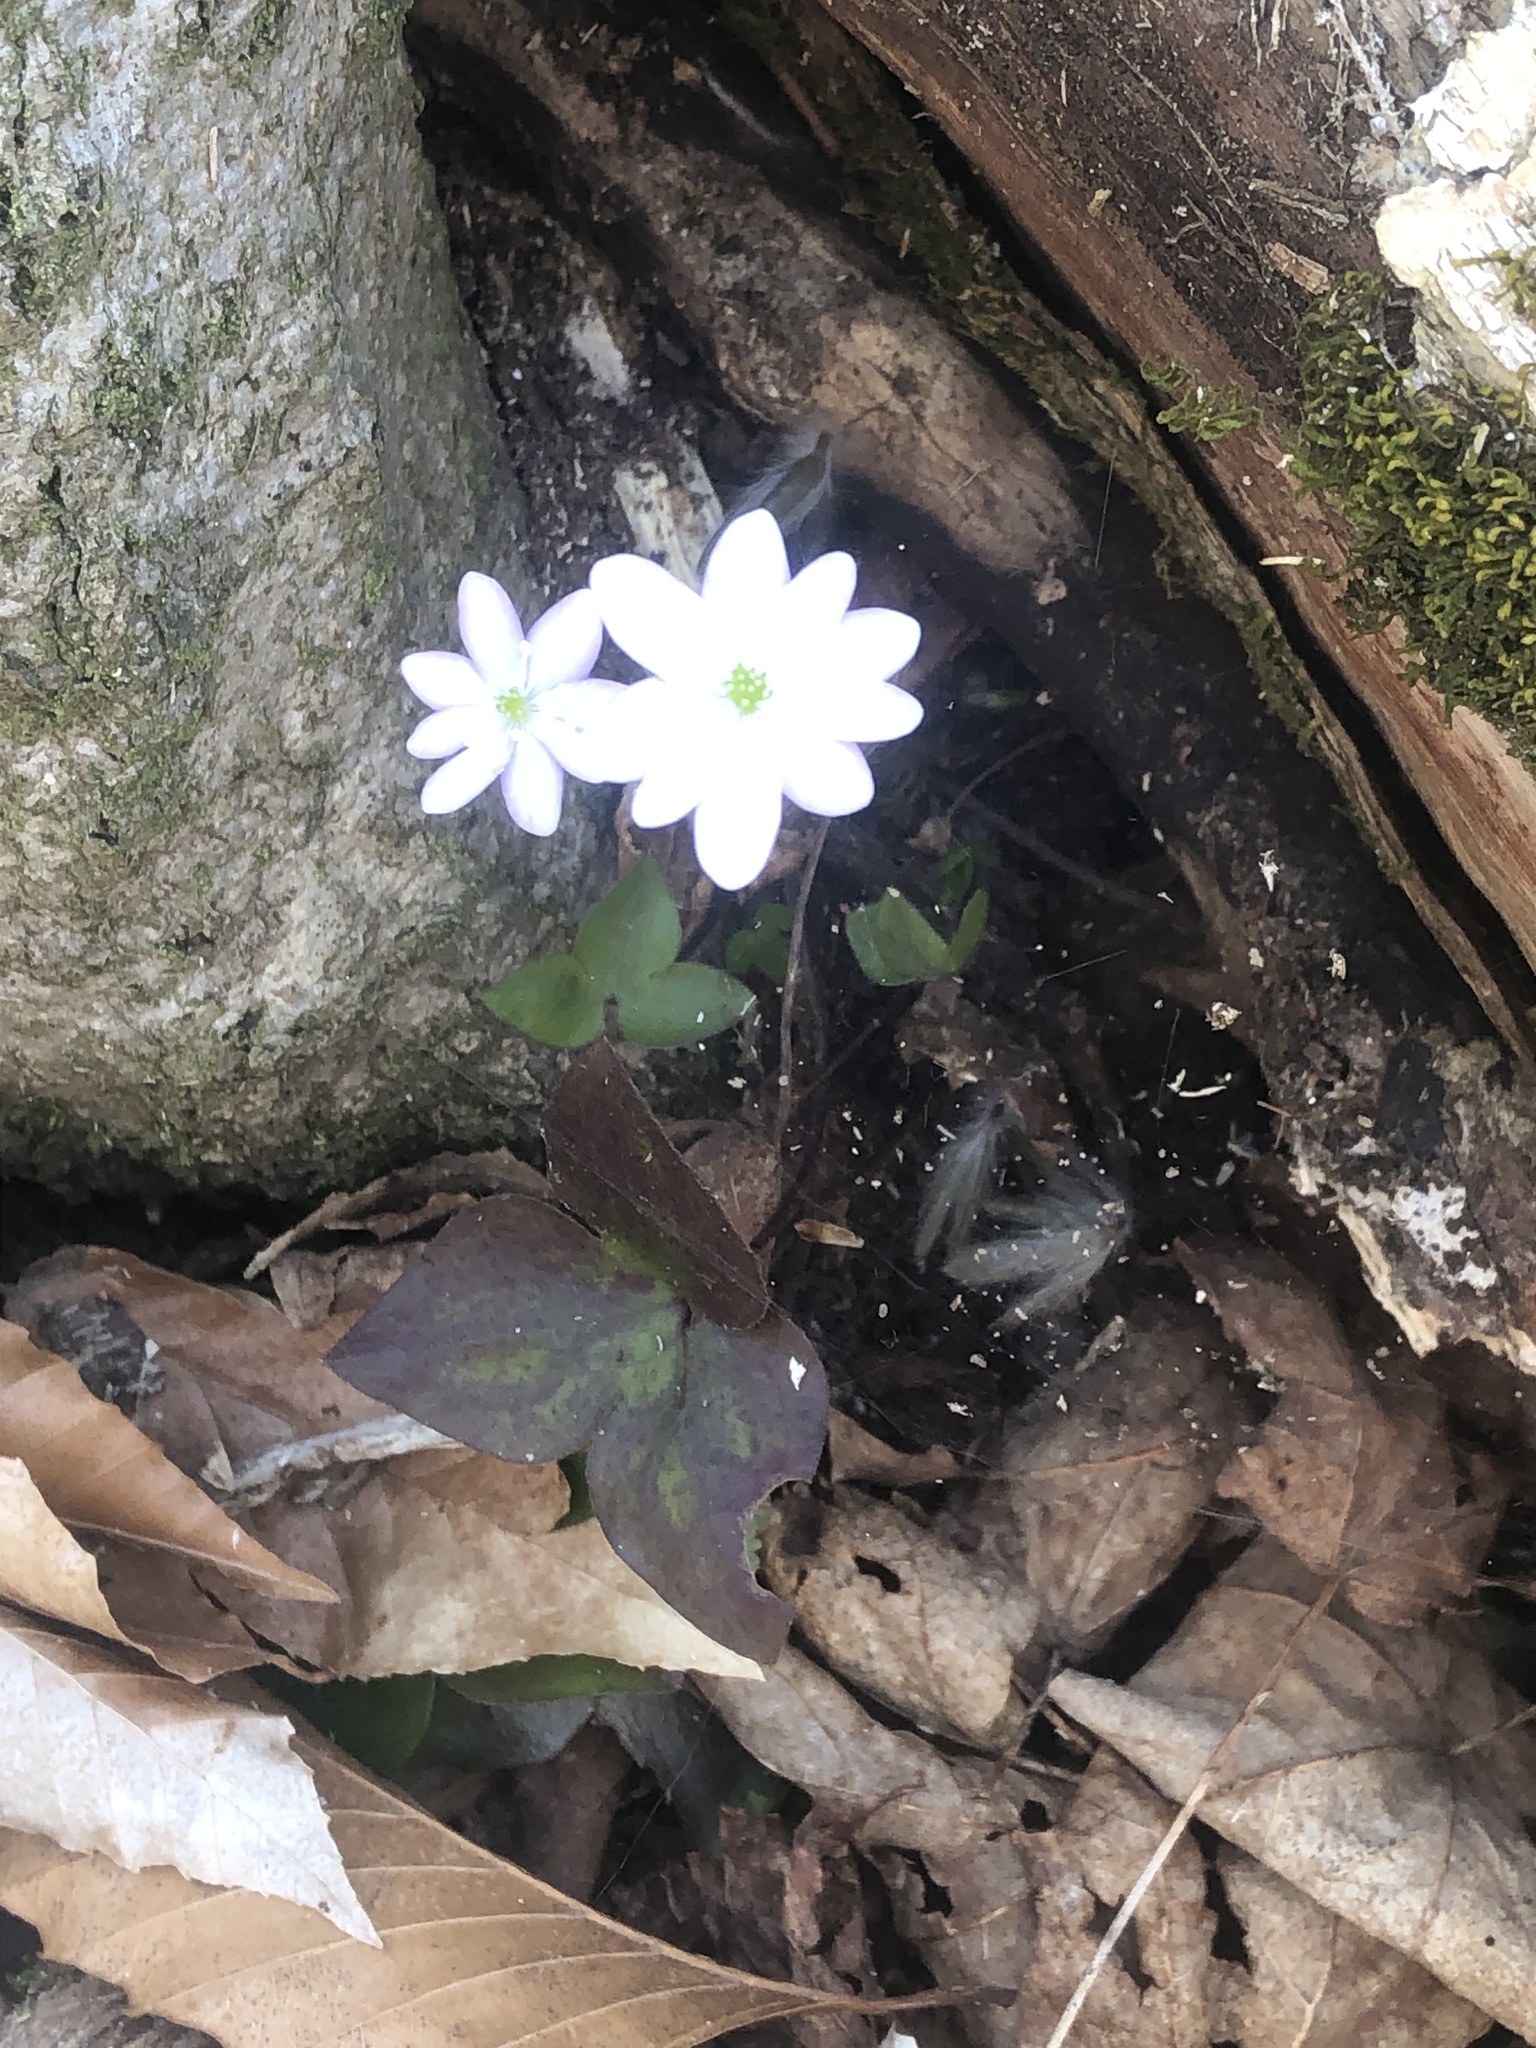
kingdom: Plantae
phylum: Tracheophyta
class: Magnoliopsida
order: Ranunculales
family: Ranunculaceae
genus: Hepatica
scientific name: Hepatica acutiloba
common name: Sharp-lobed hepatica
